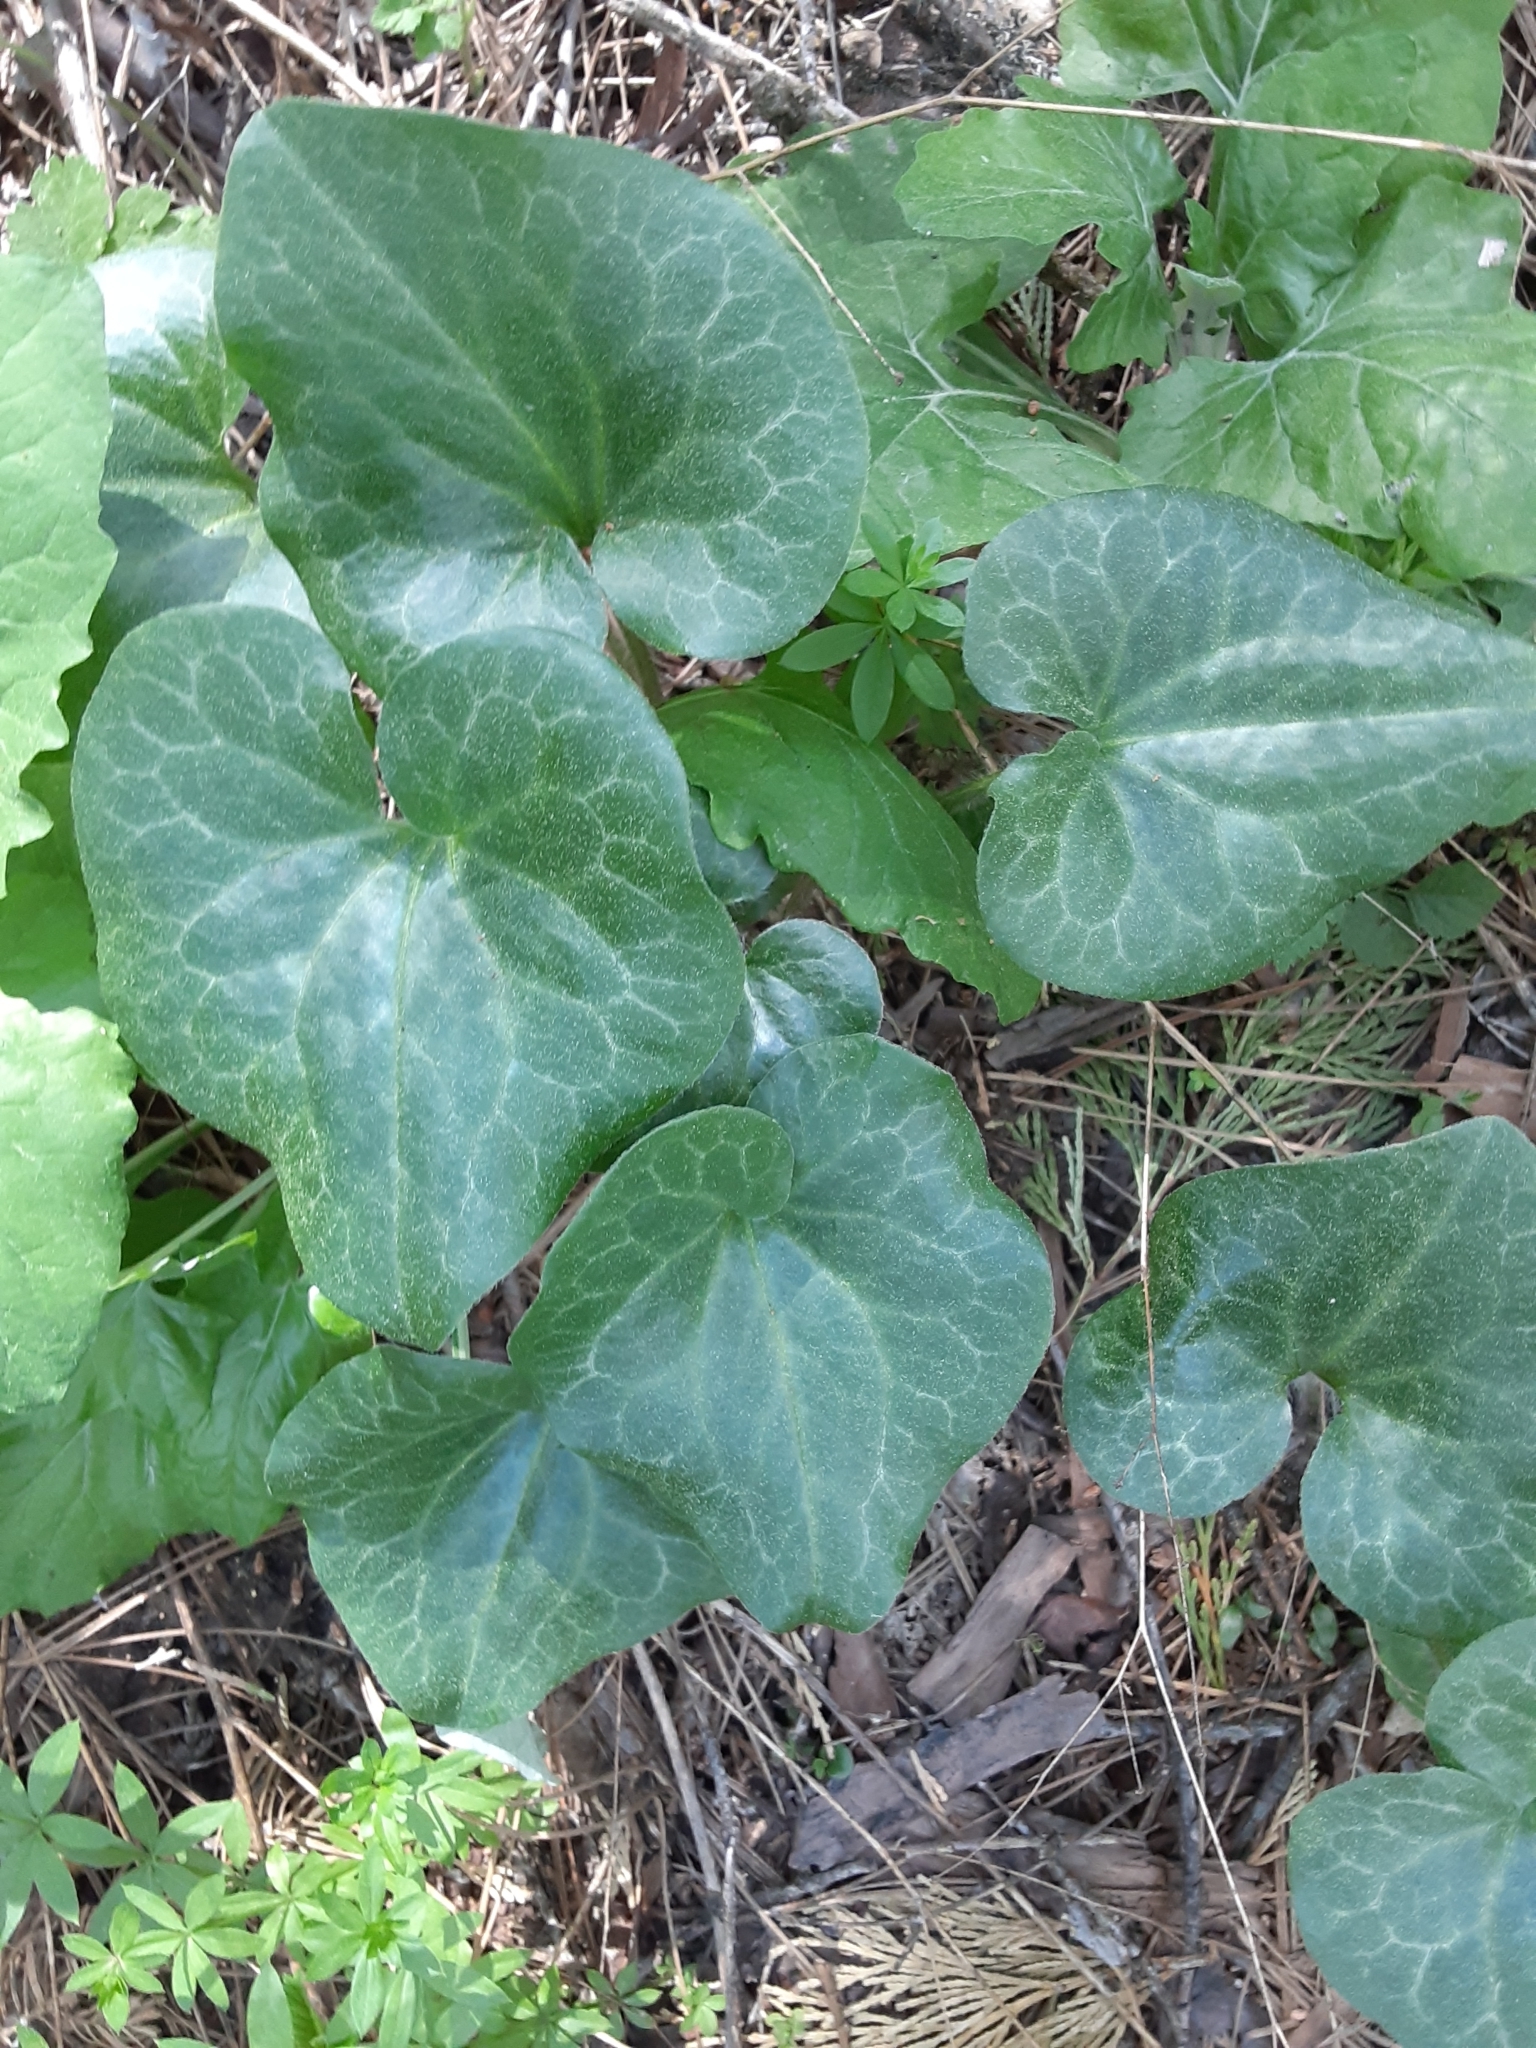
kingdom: Plantae
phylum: Tracheophyta
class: Magnoliopsida
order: Piperales
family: Aristolochiaceae
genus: Asarum
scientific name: Asarum hartwegii
